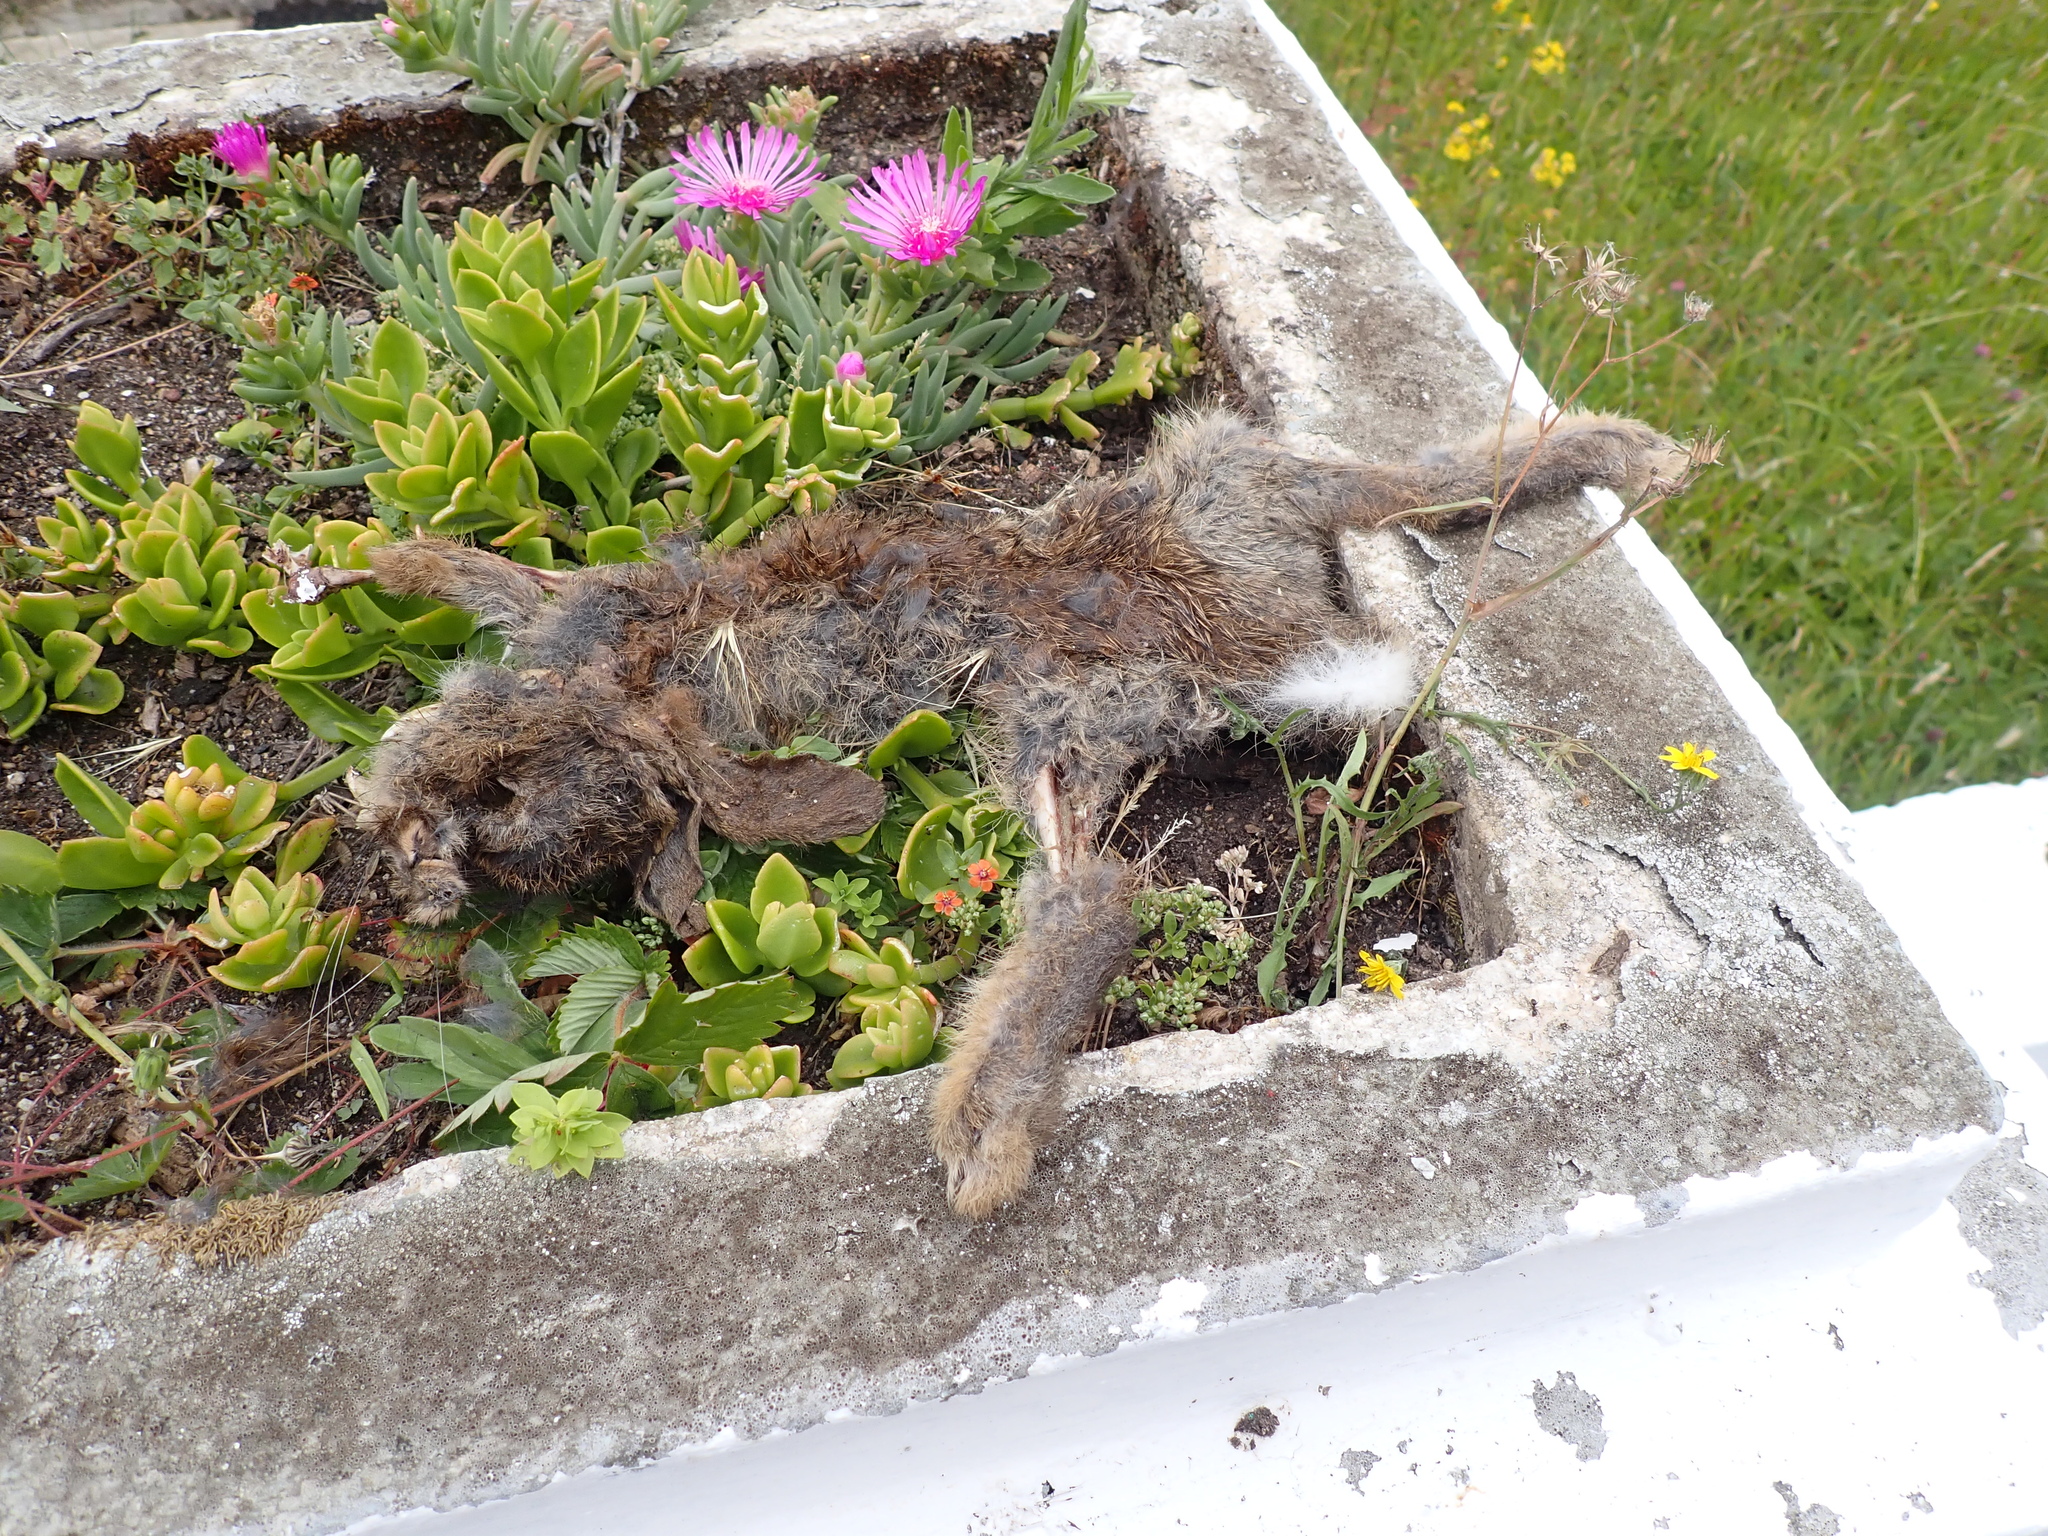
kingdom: Animalia
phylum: Chordata
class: Mammalia
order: Lagomorpha
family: Leporidae
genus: Oryctolagus
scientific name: Oryctolagus cuniculus
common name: European rabbit
